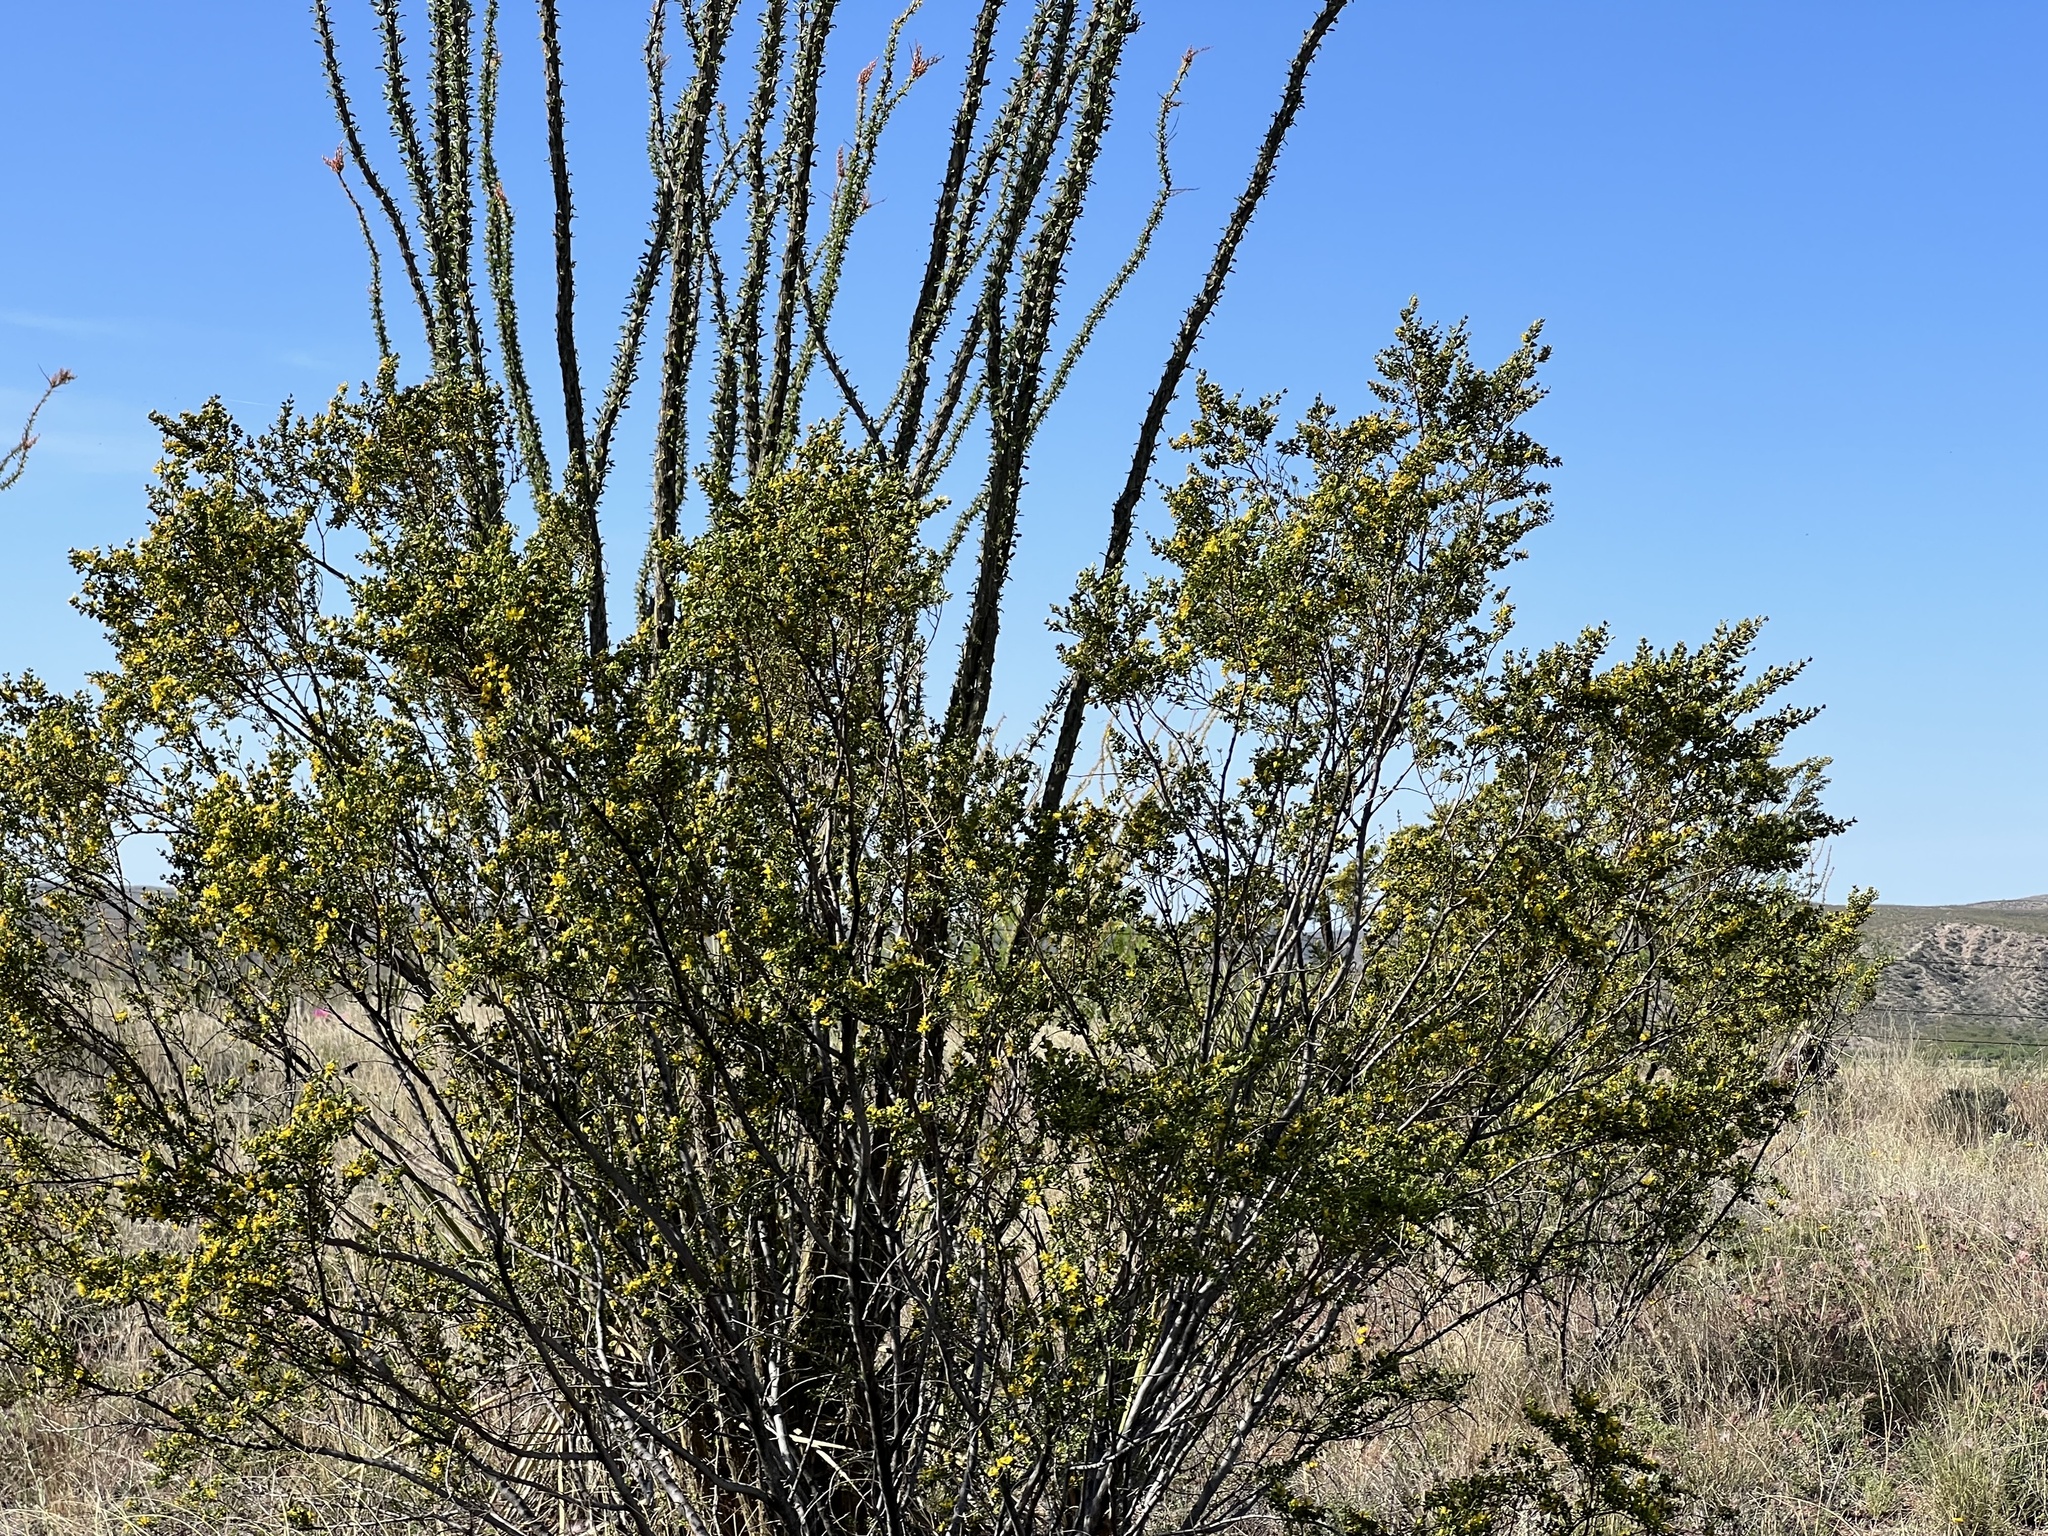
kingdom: Plantae
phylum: Tracheophyta
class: Magnoliopsida
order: Zygophyllales
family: Zygophyllaceae
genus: Larrea
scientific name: Larrea tridentata
